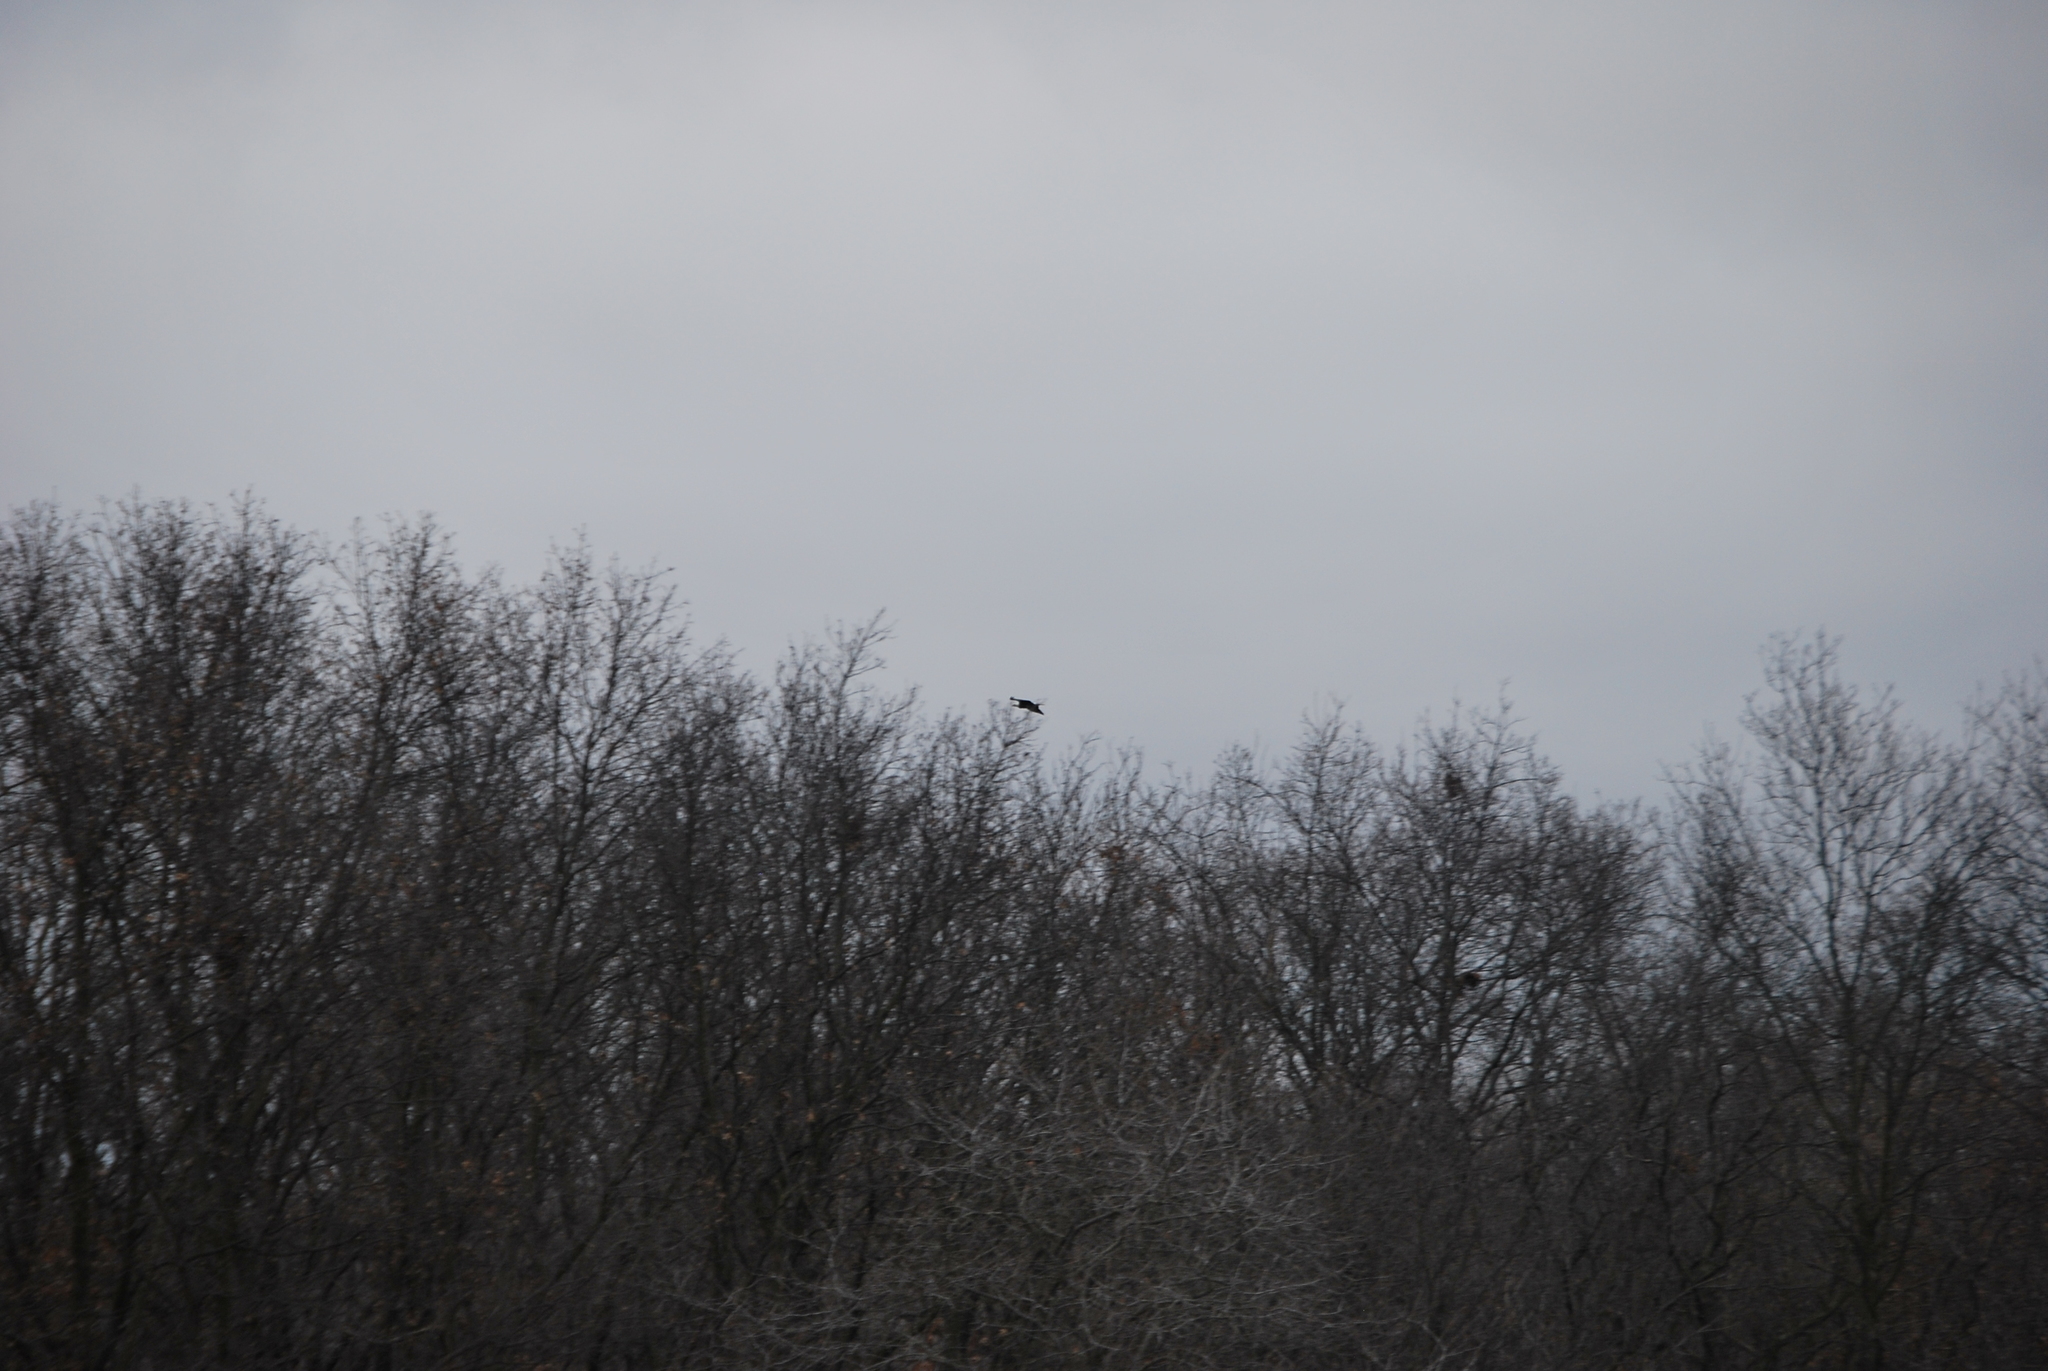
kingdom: Animalia
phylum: Chordata
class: Aves
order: Accipitriformes
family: Accipitridae
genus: Haliaeetus
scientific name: Haliaeetus leucocephalus
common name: Bald eagle
